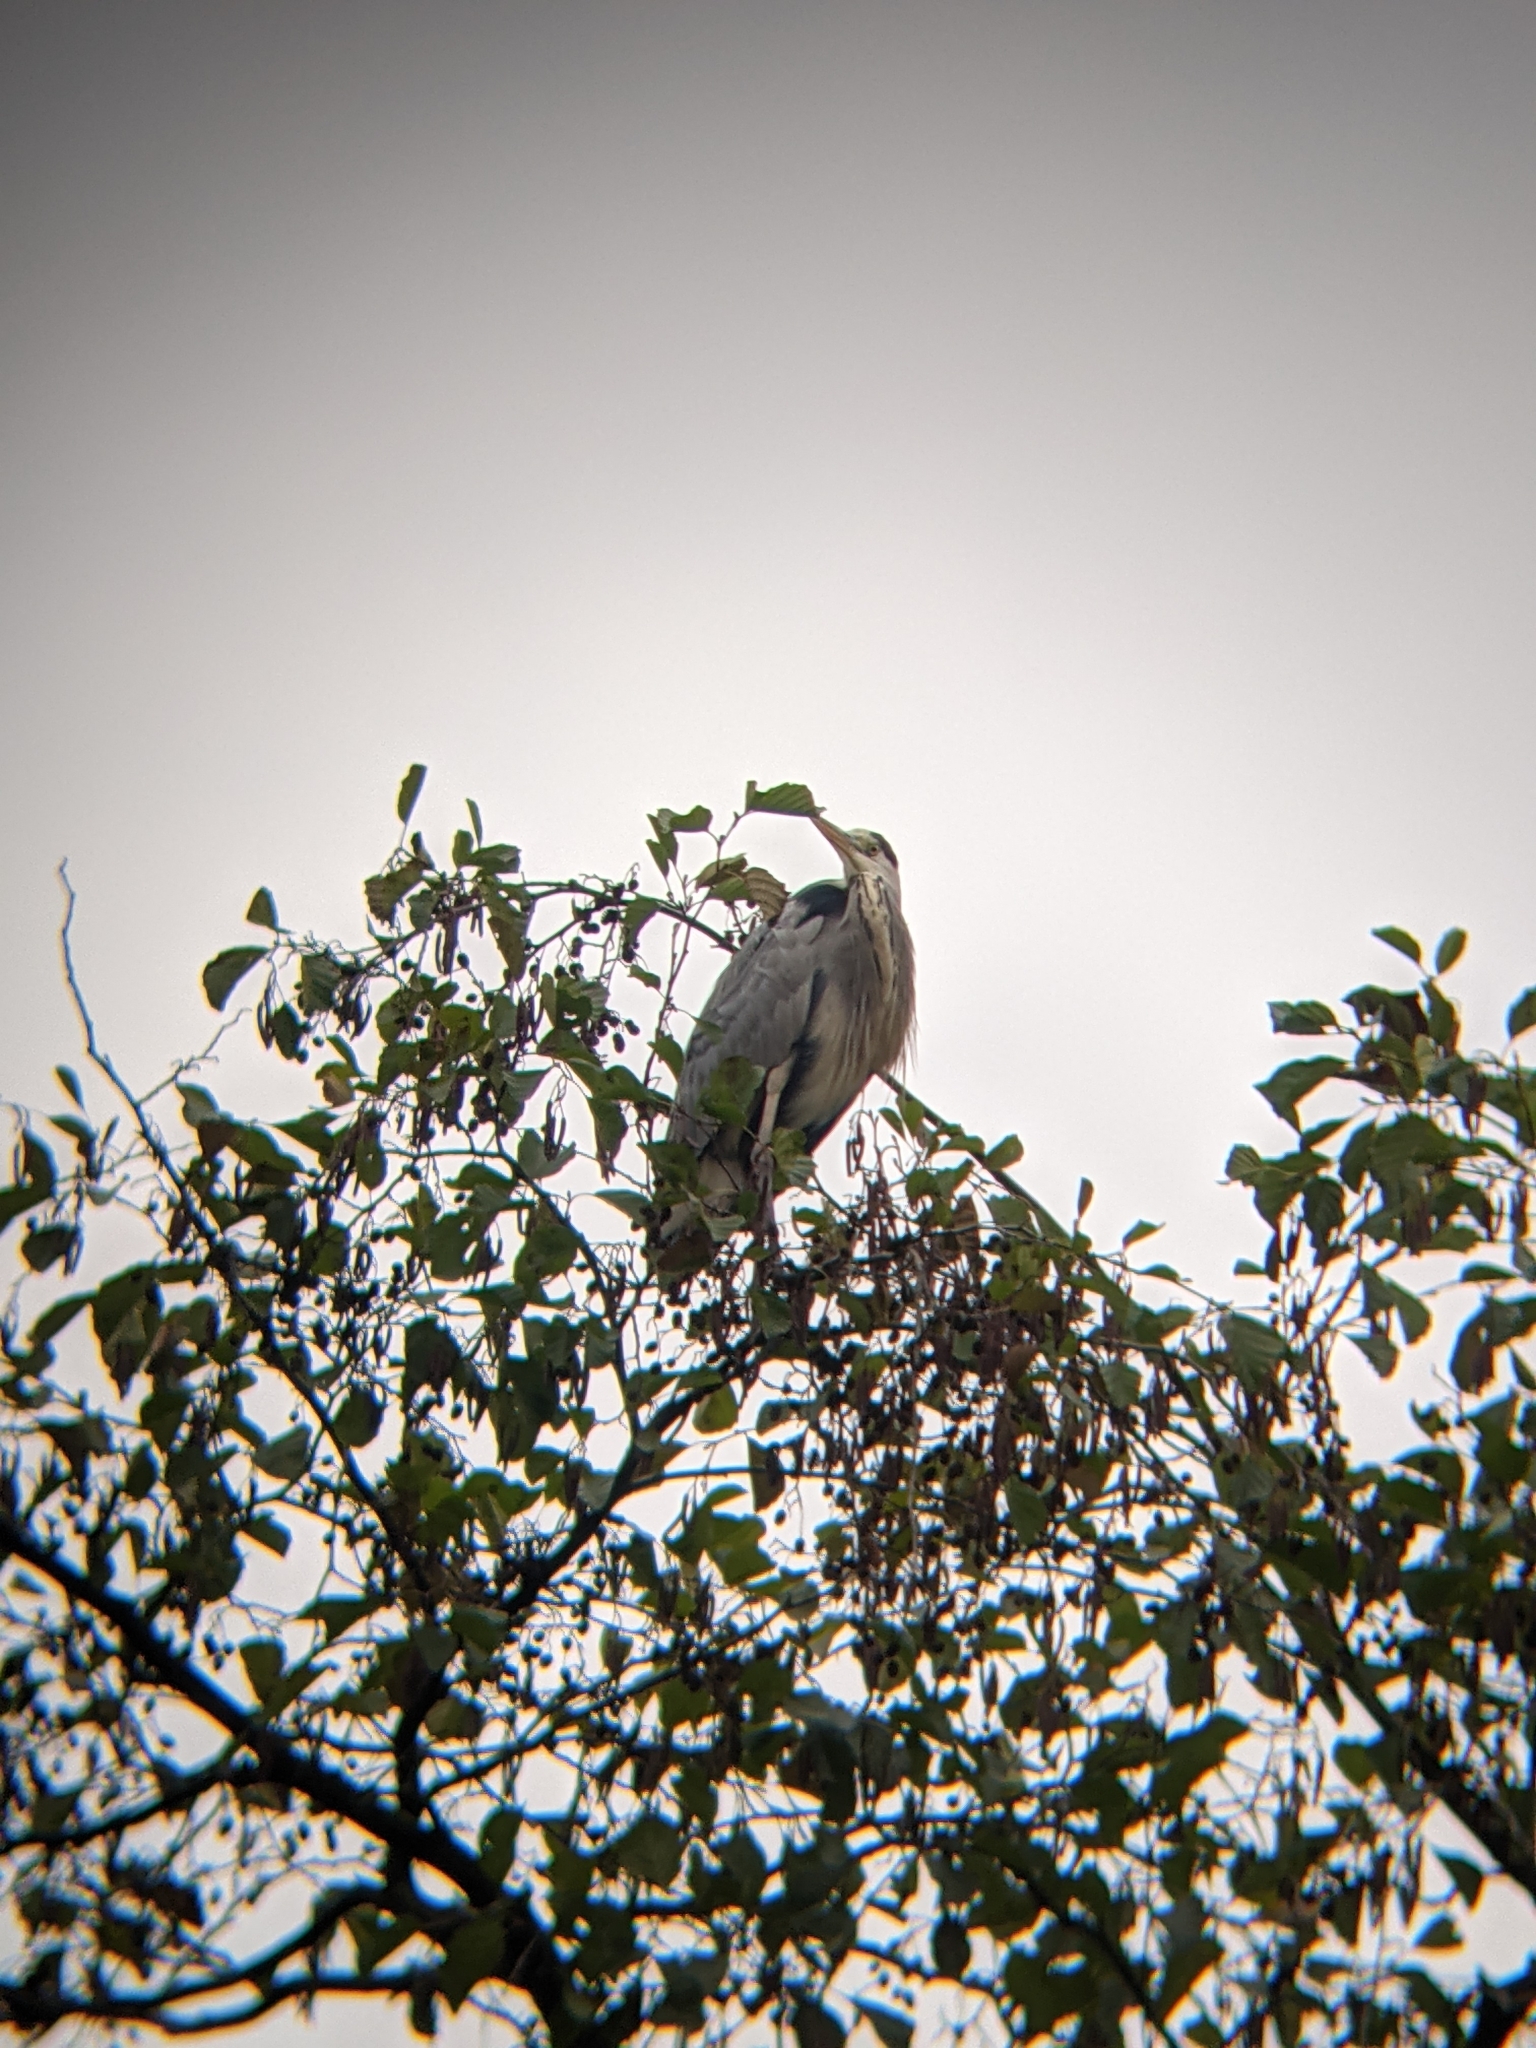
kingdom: Animalia
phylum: Chordata
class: Aves
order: Pelecaniformes
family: Ardeidae
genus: Ardea
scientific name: Ardea cinerea
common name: Grey heron
